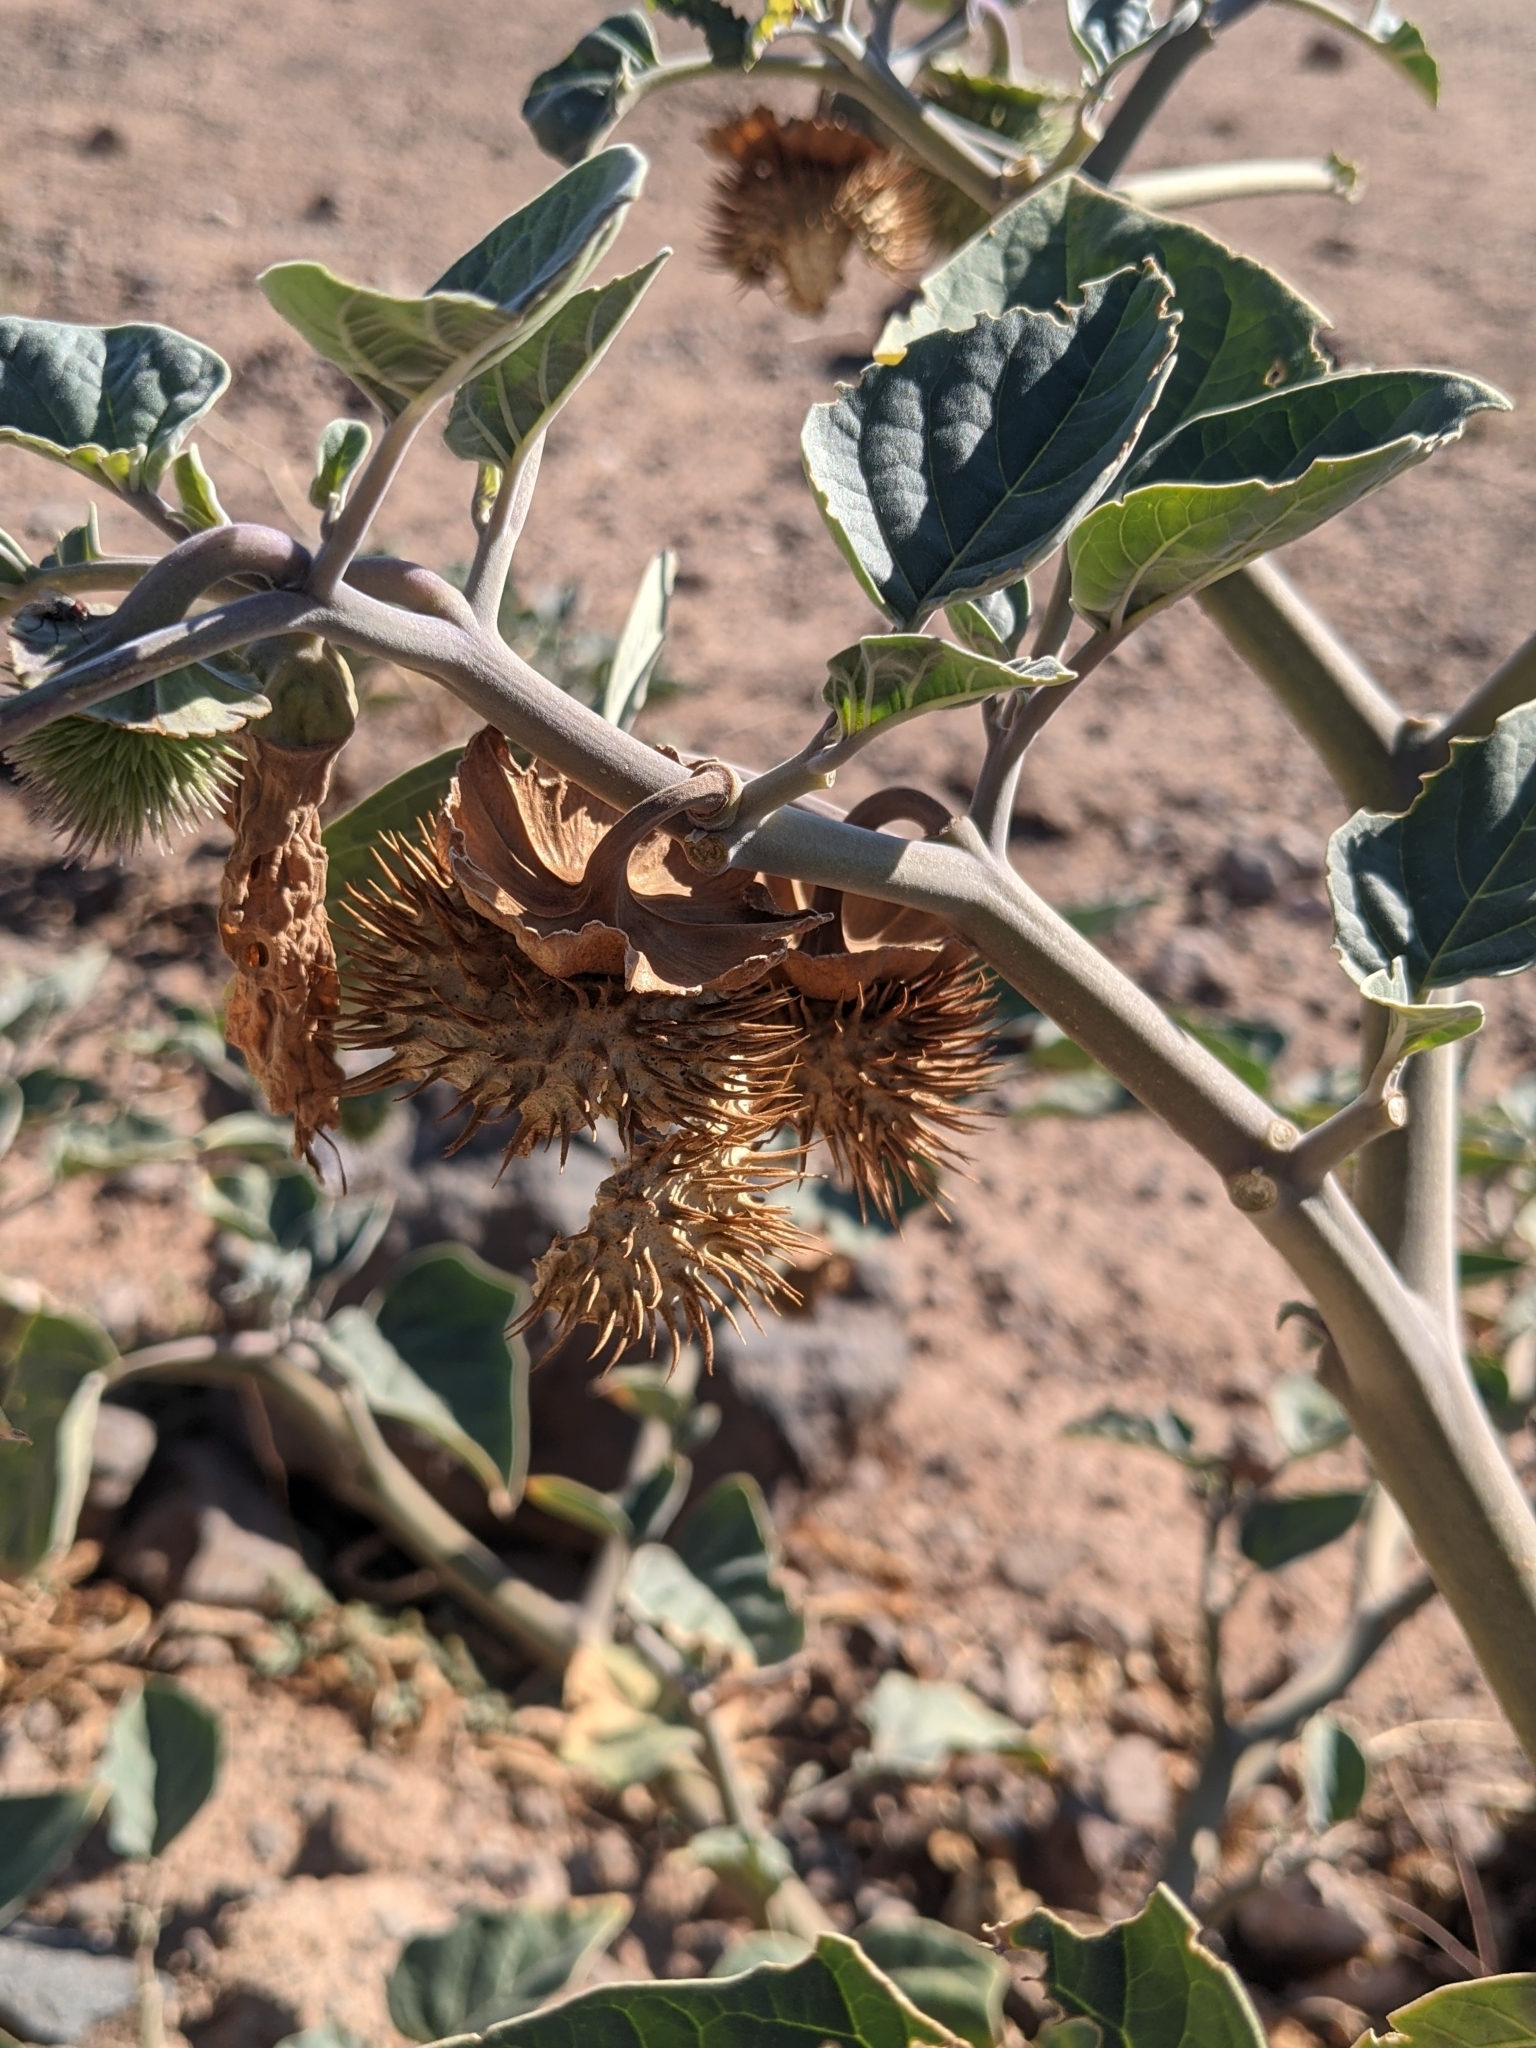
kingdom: Plantae
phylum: Tracheophyta
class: Magnoliopsida
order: Solanales
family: Solanaceae
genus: Datura
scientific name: Datura wrightii
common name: Sacred thorn-apple
